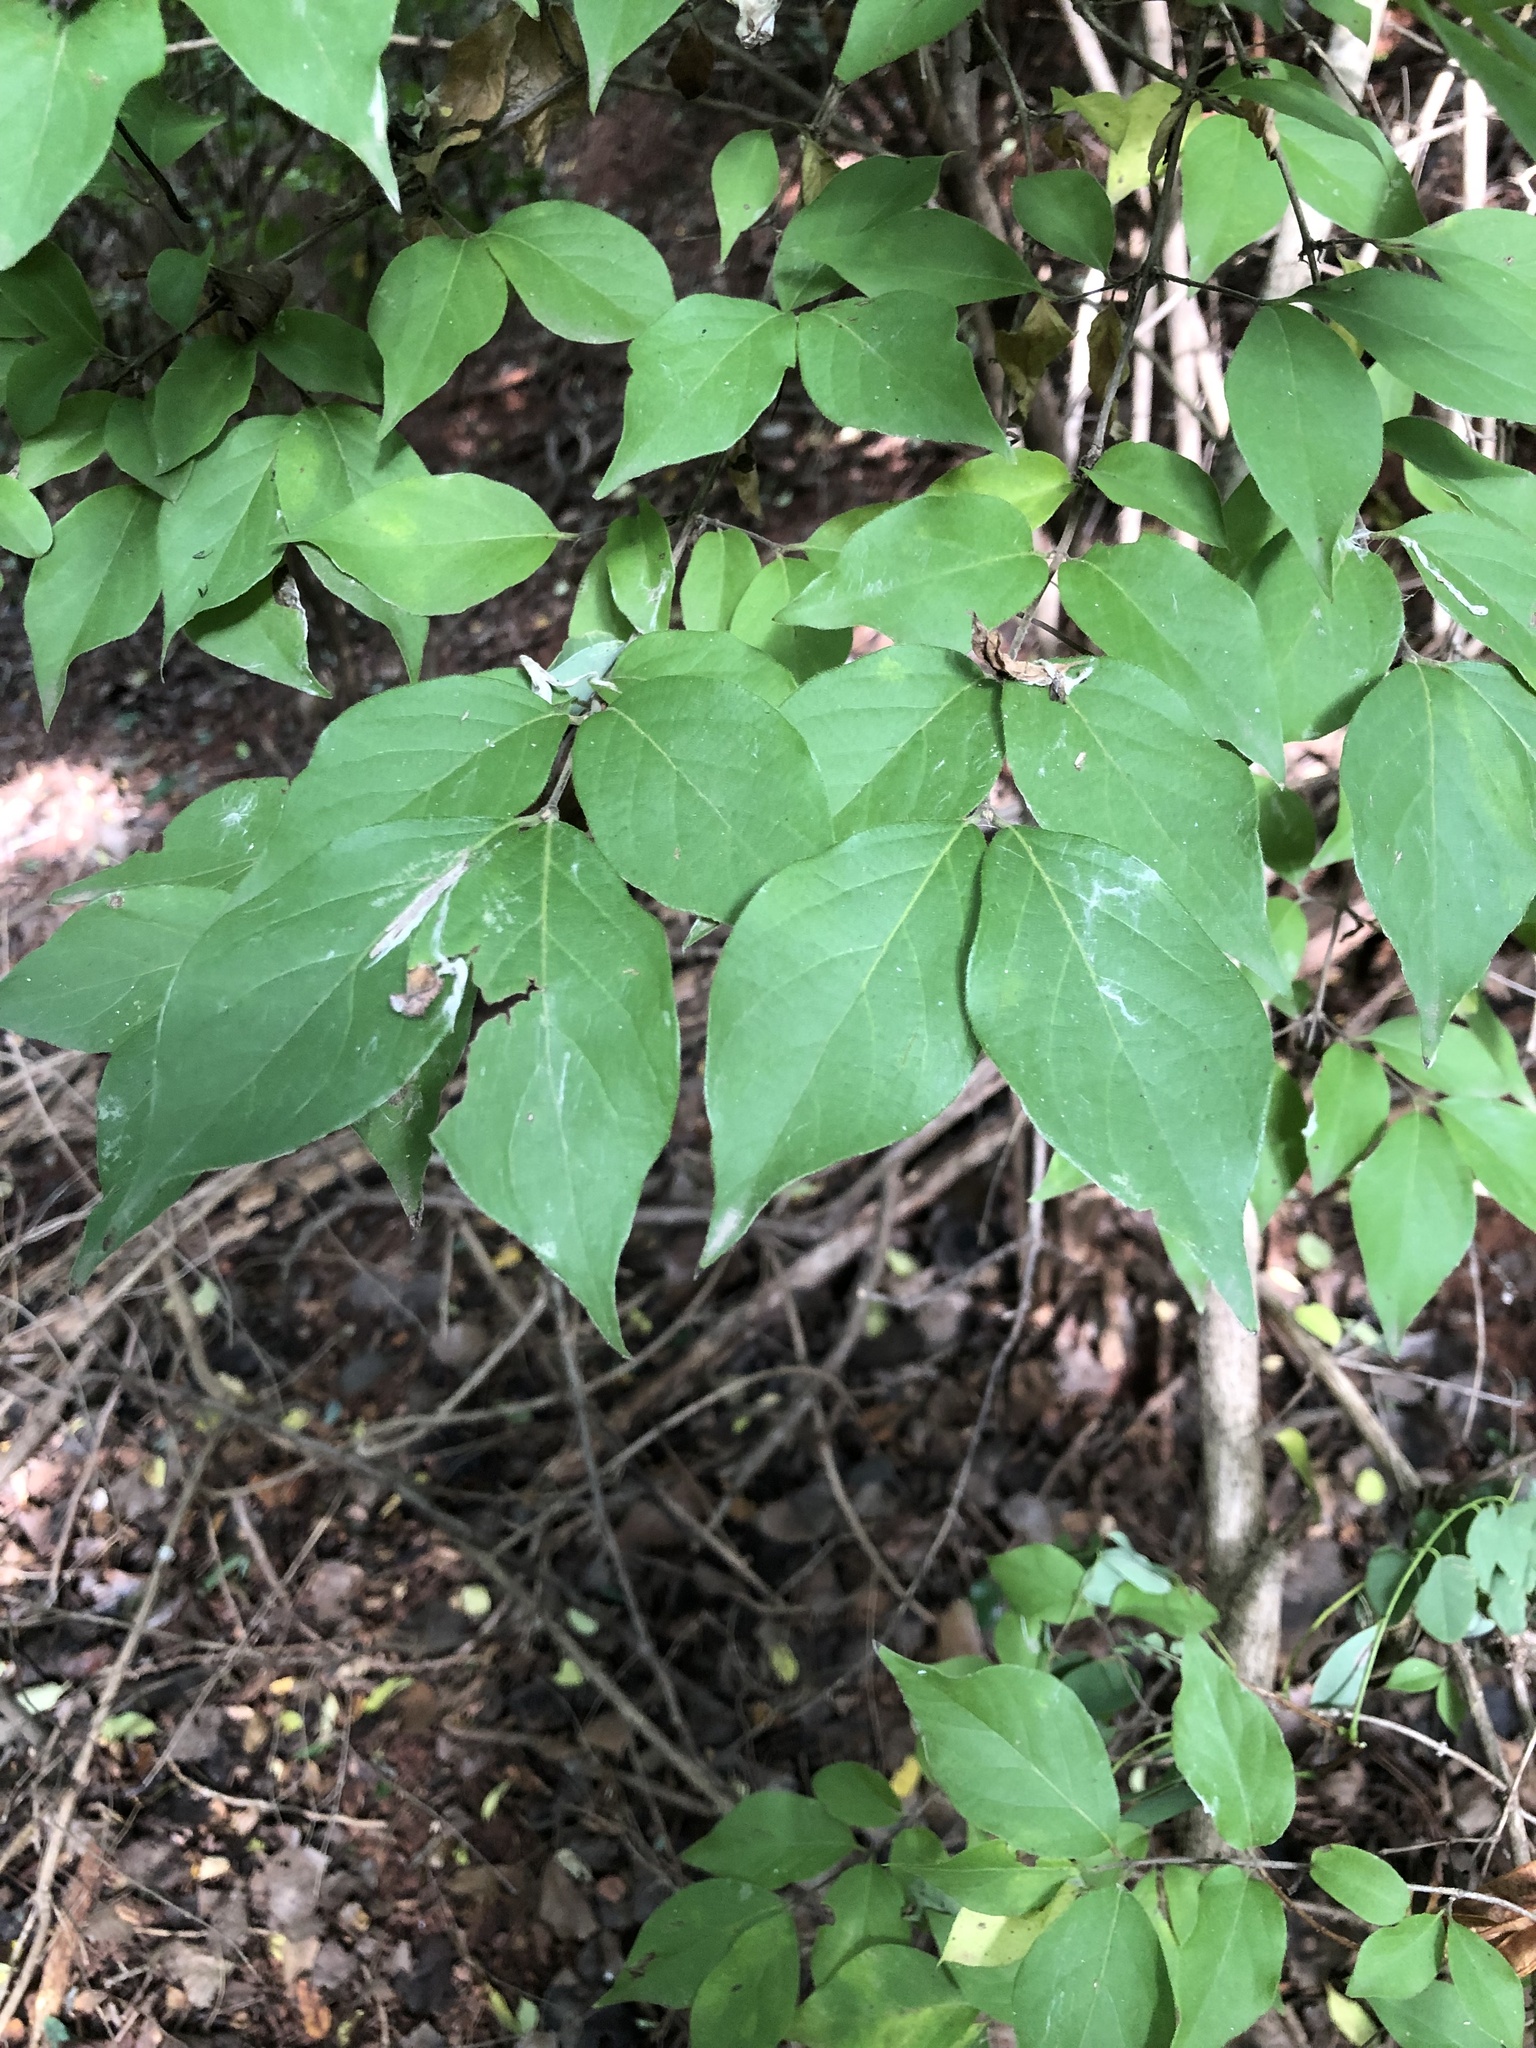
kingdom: Plantae
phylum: Tracheophyta
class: Magnoliopsida
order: Dipsacales
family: Caprifoliaceae
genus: Lonicera
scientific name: Lonicera maackii
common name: Amur honeysuckle
